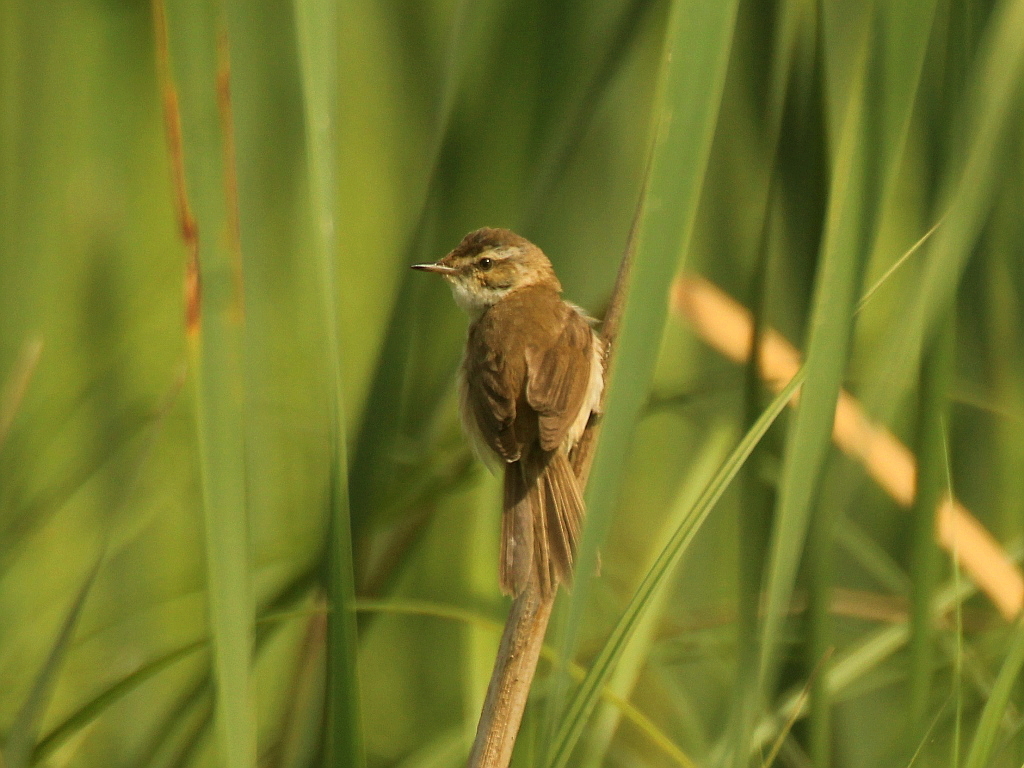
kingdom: Animalia
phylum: Chordata
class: Aves
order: Passeriformes
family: Acrocephalidae
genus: Acrocephalus
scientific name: Acrocephalus agricola
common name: Paddyfield warbler
